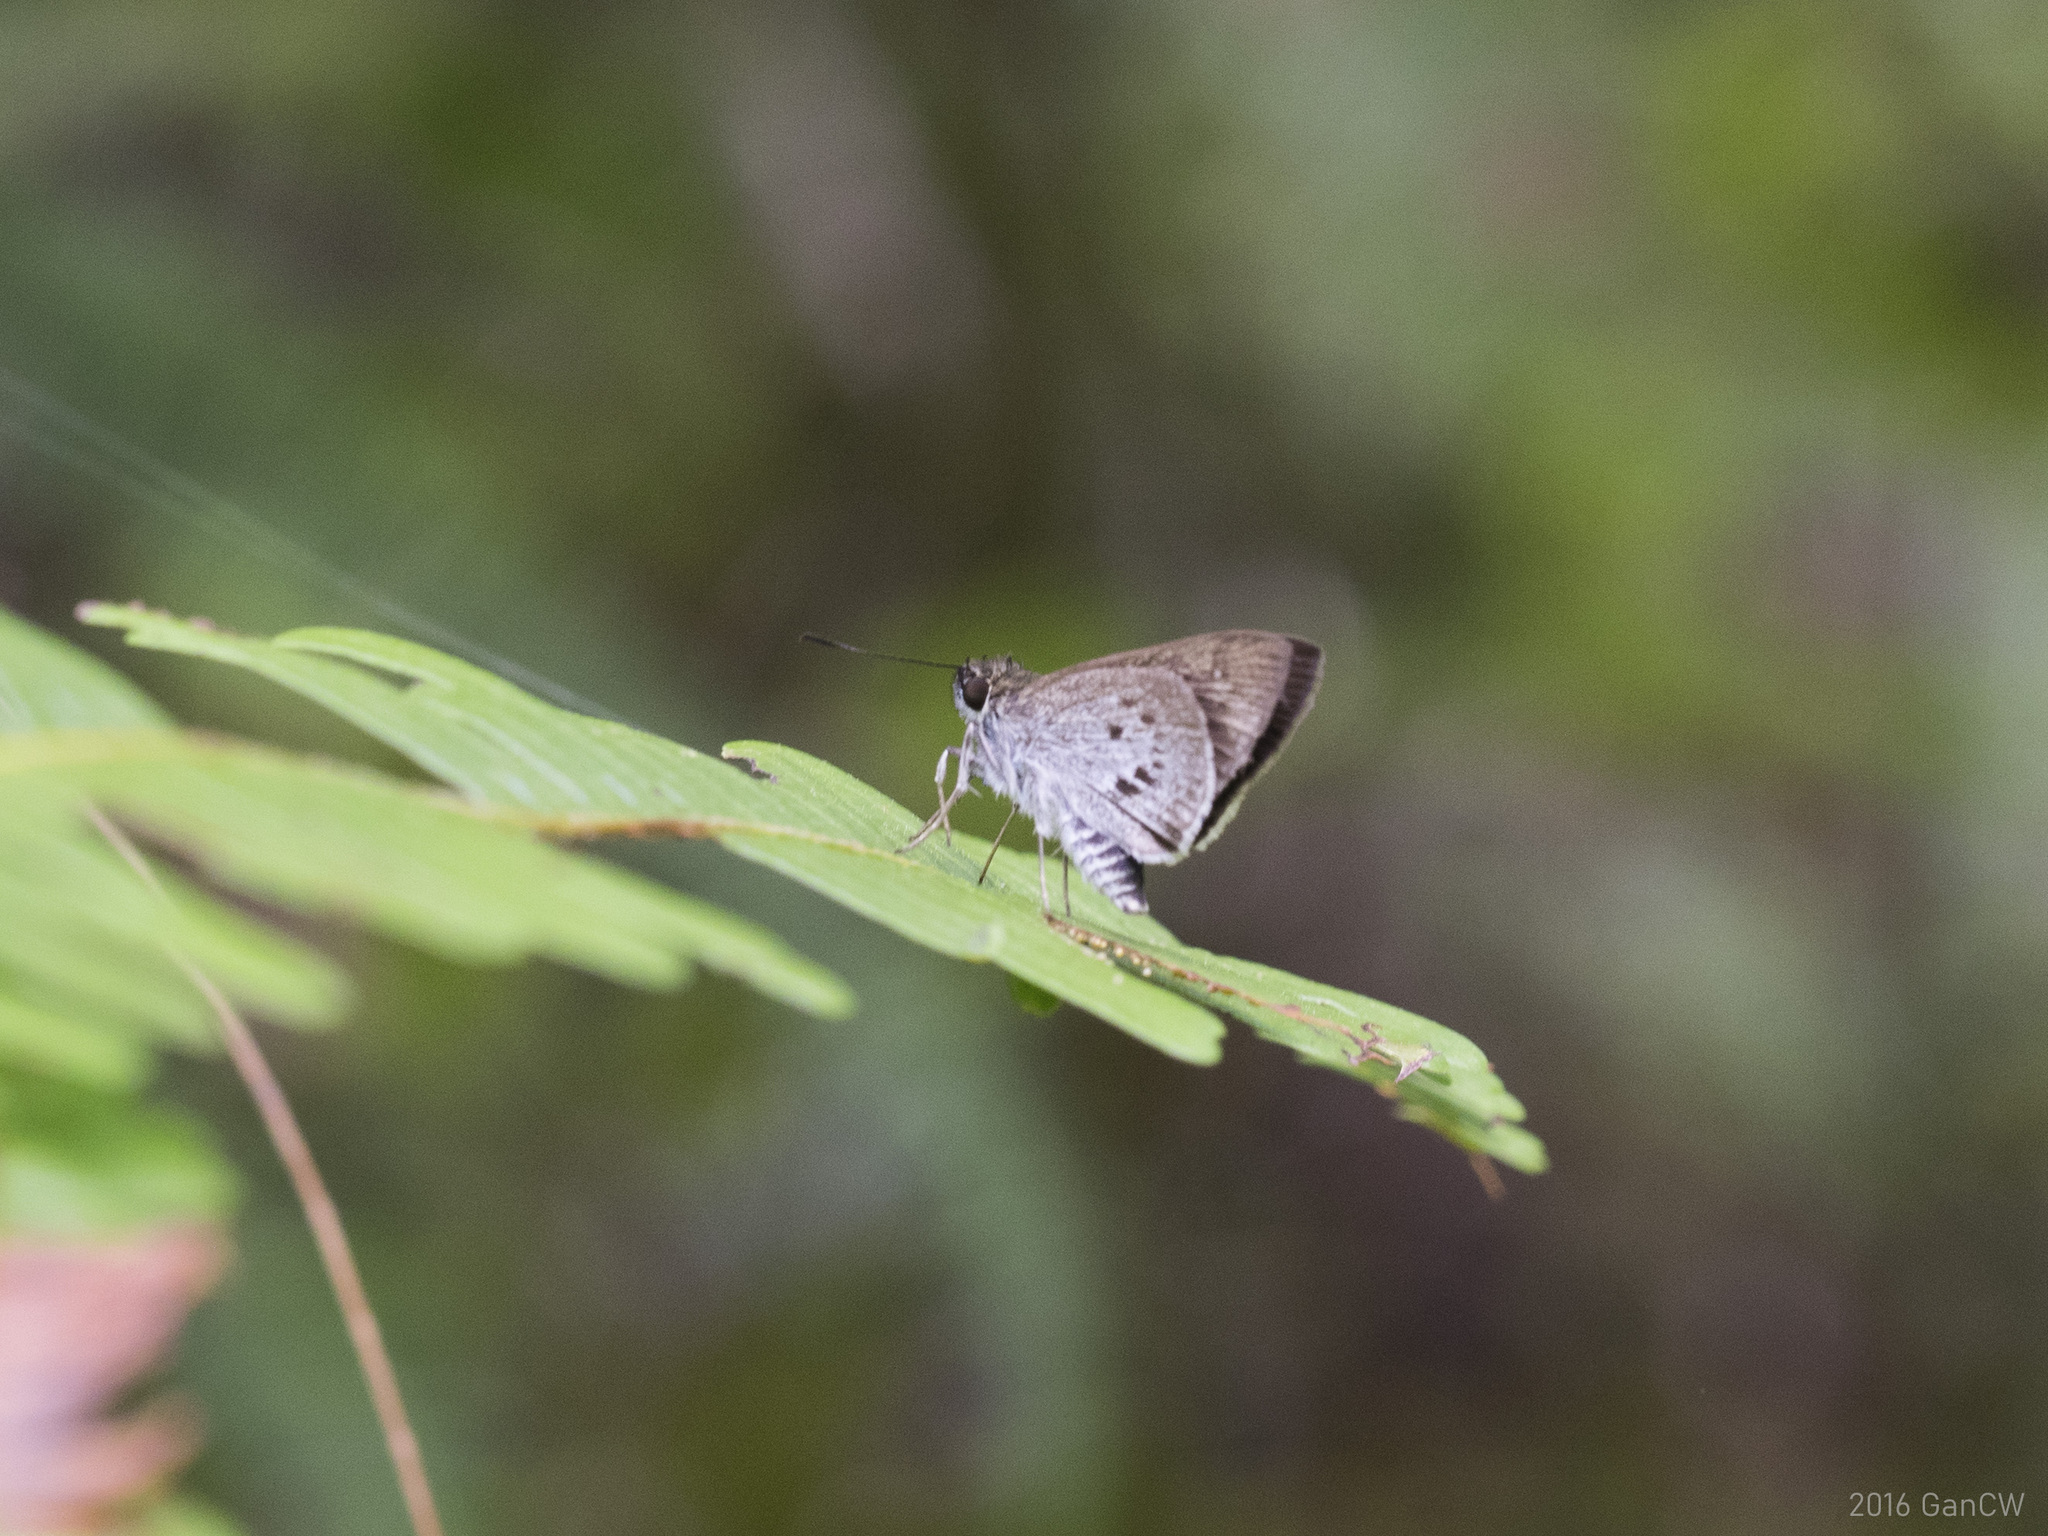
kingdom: Animalia
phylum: Arthropoda
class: Insecta
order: Lepidoptera
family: Hesperiidae
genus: Suastus
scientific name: Suastus everyx
